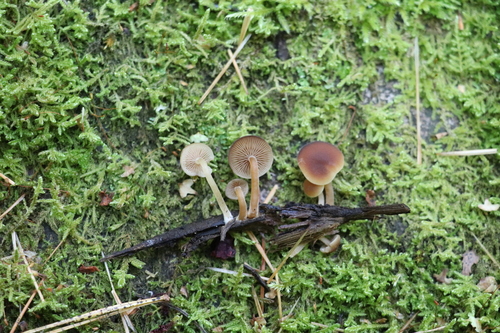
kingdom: Fungi
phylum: Basidiomycota
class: Agaricomycetes
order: Agaricales
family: Psathyrellaceae
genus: Psathyrella
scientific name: Psathyrella pygmaea
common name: Pygmy brittlestem
